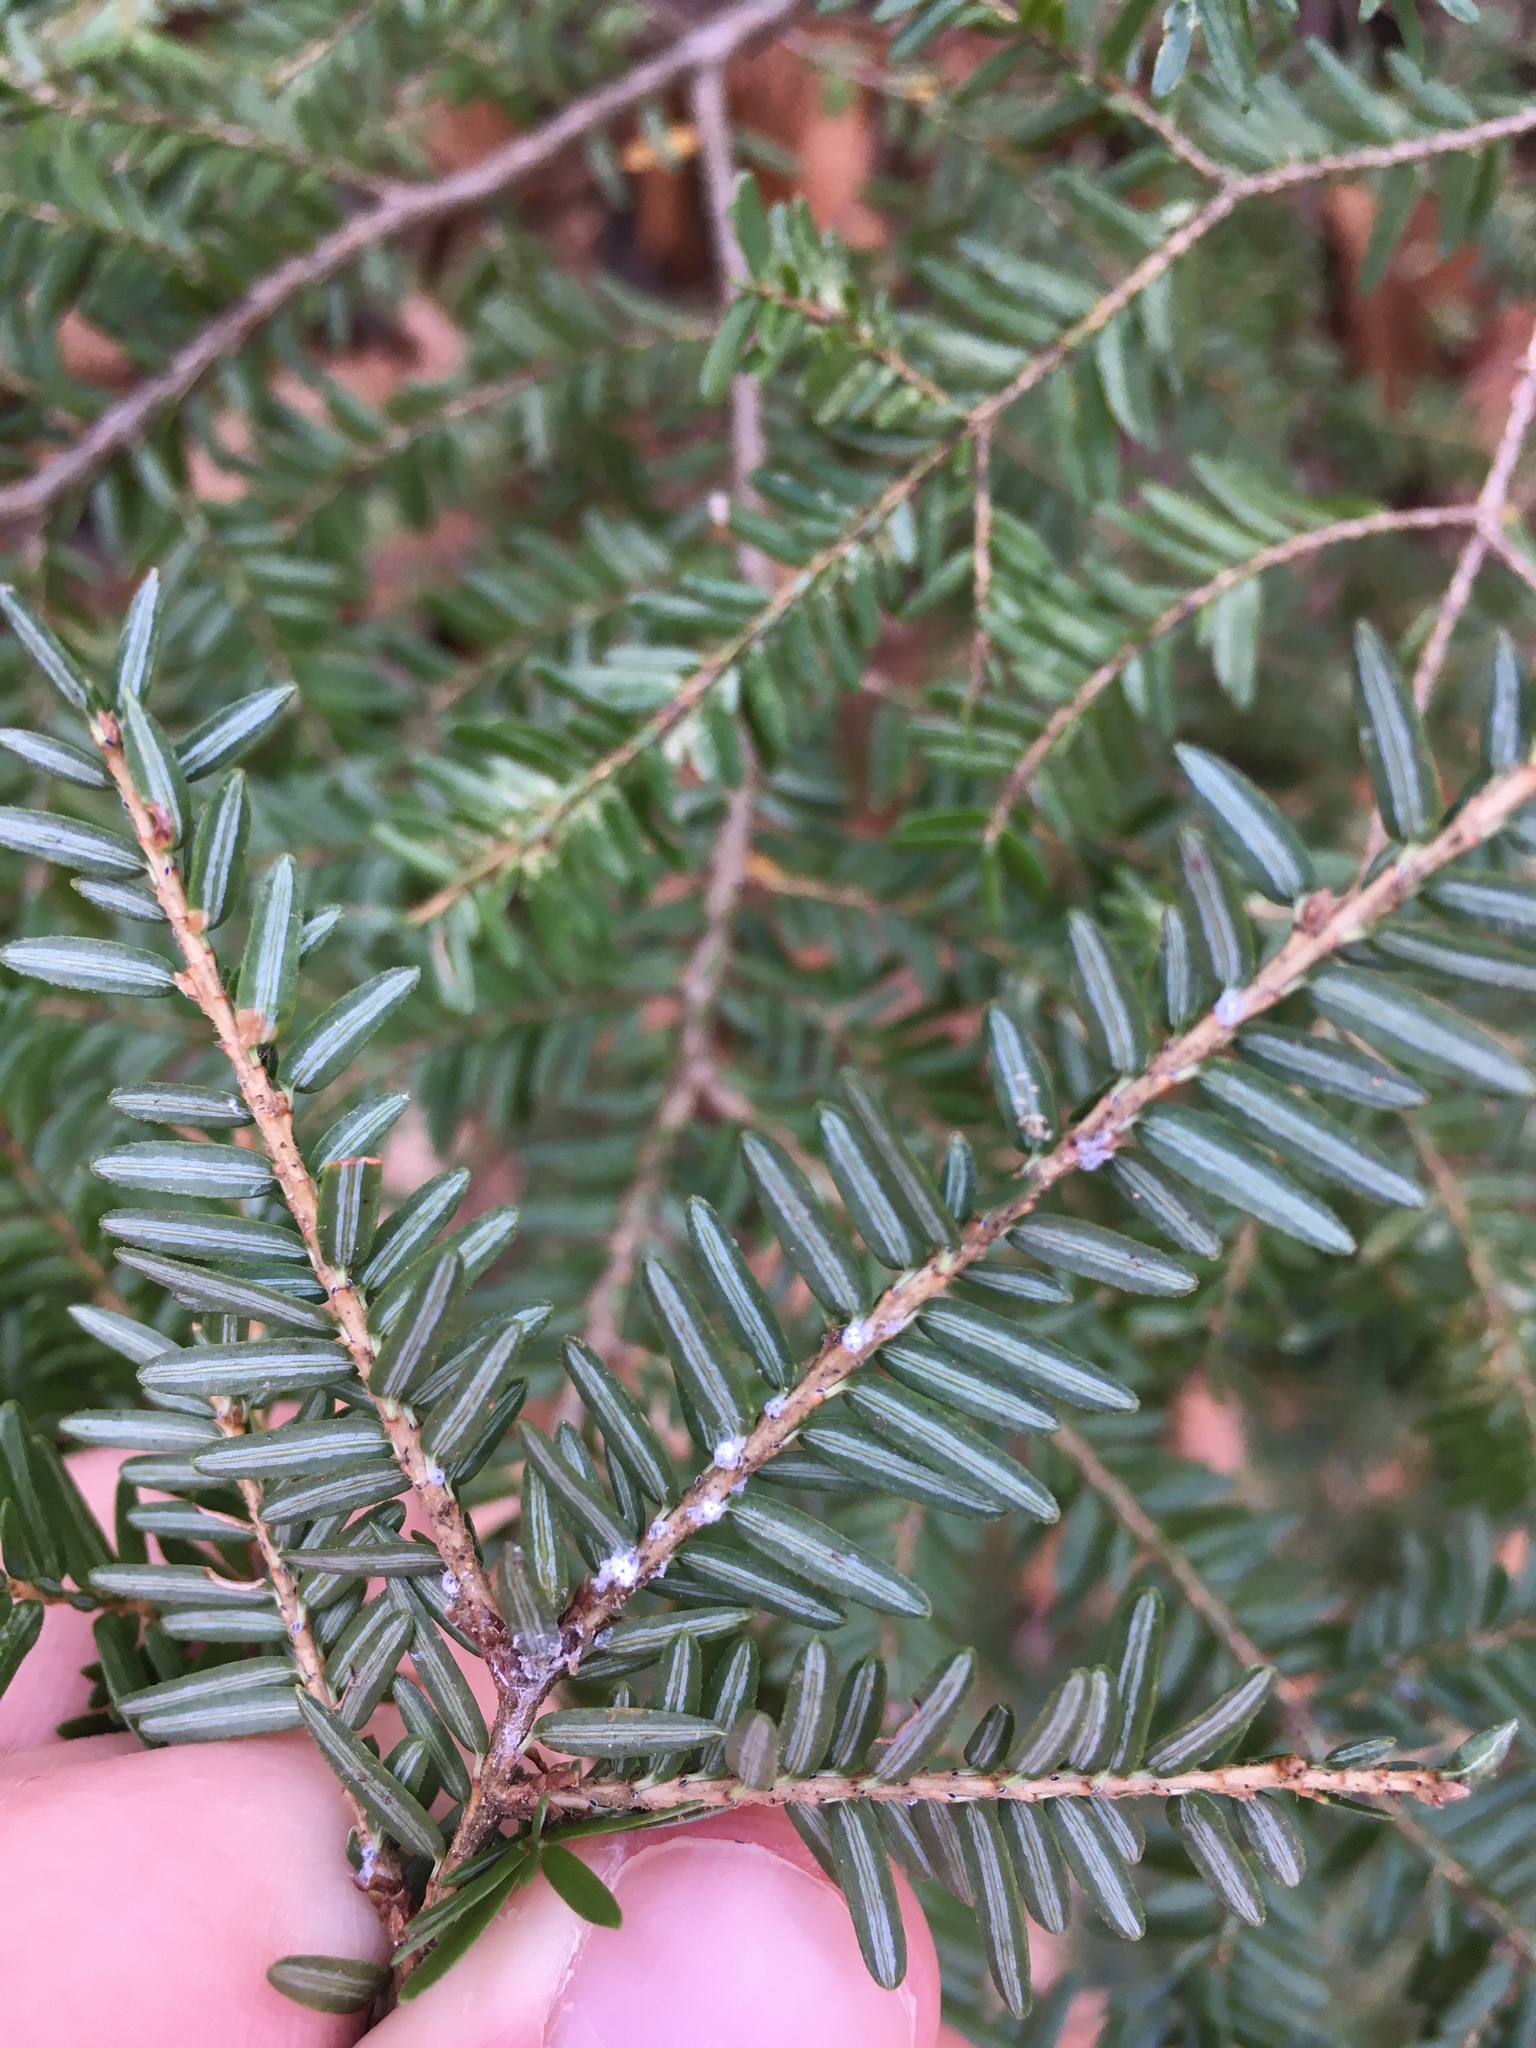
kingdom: Animalia
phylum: Arthropoda
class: Insecta
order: Hemiptera
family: Adelgidae
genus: Adelges
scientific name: Adelges tsugae
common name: Hemlock woolly adelgid
